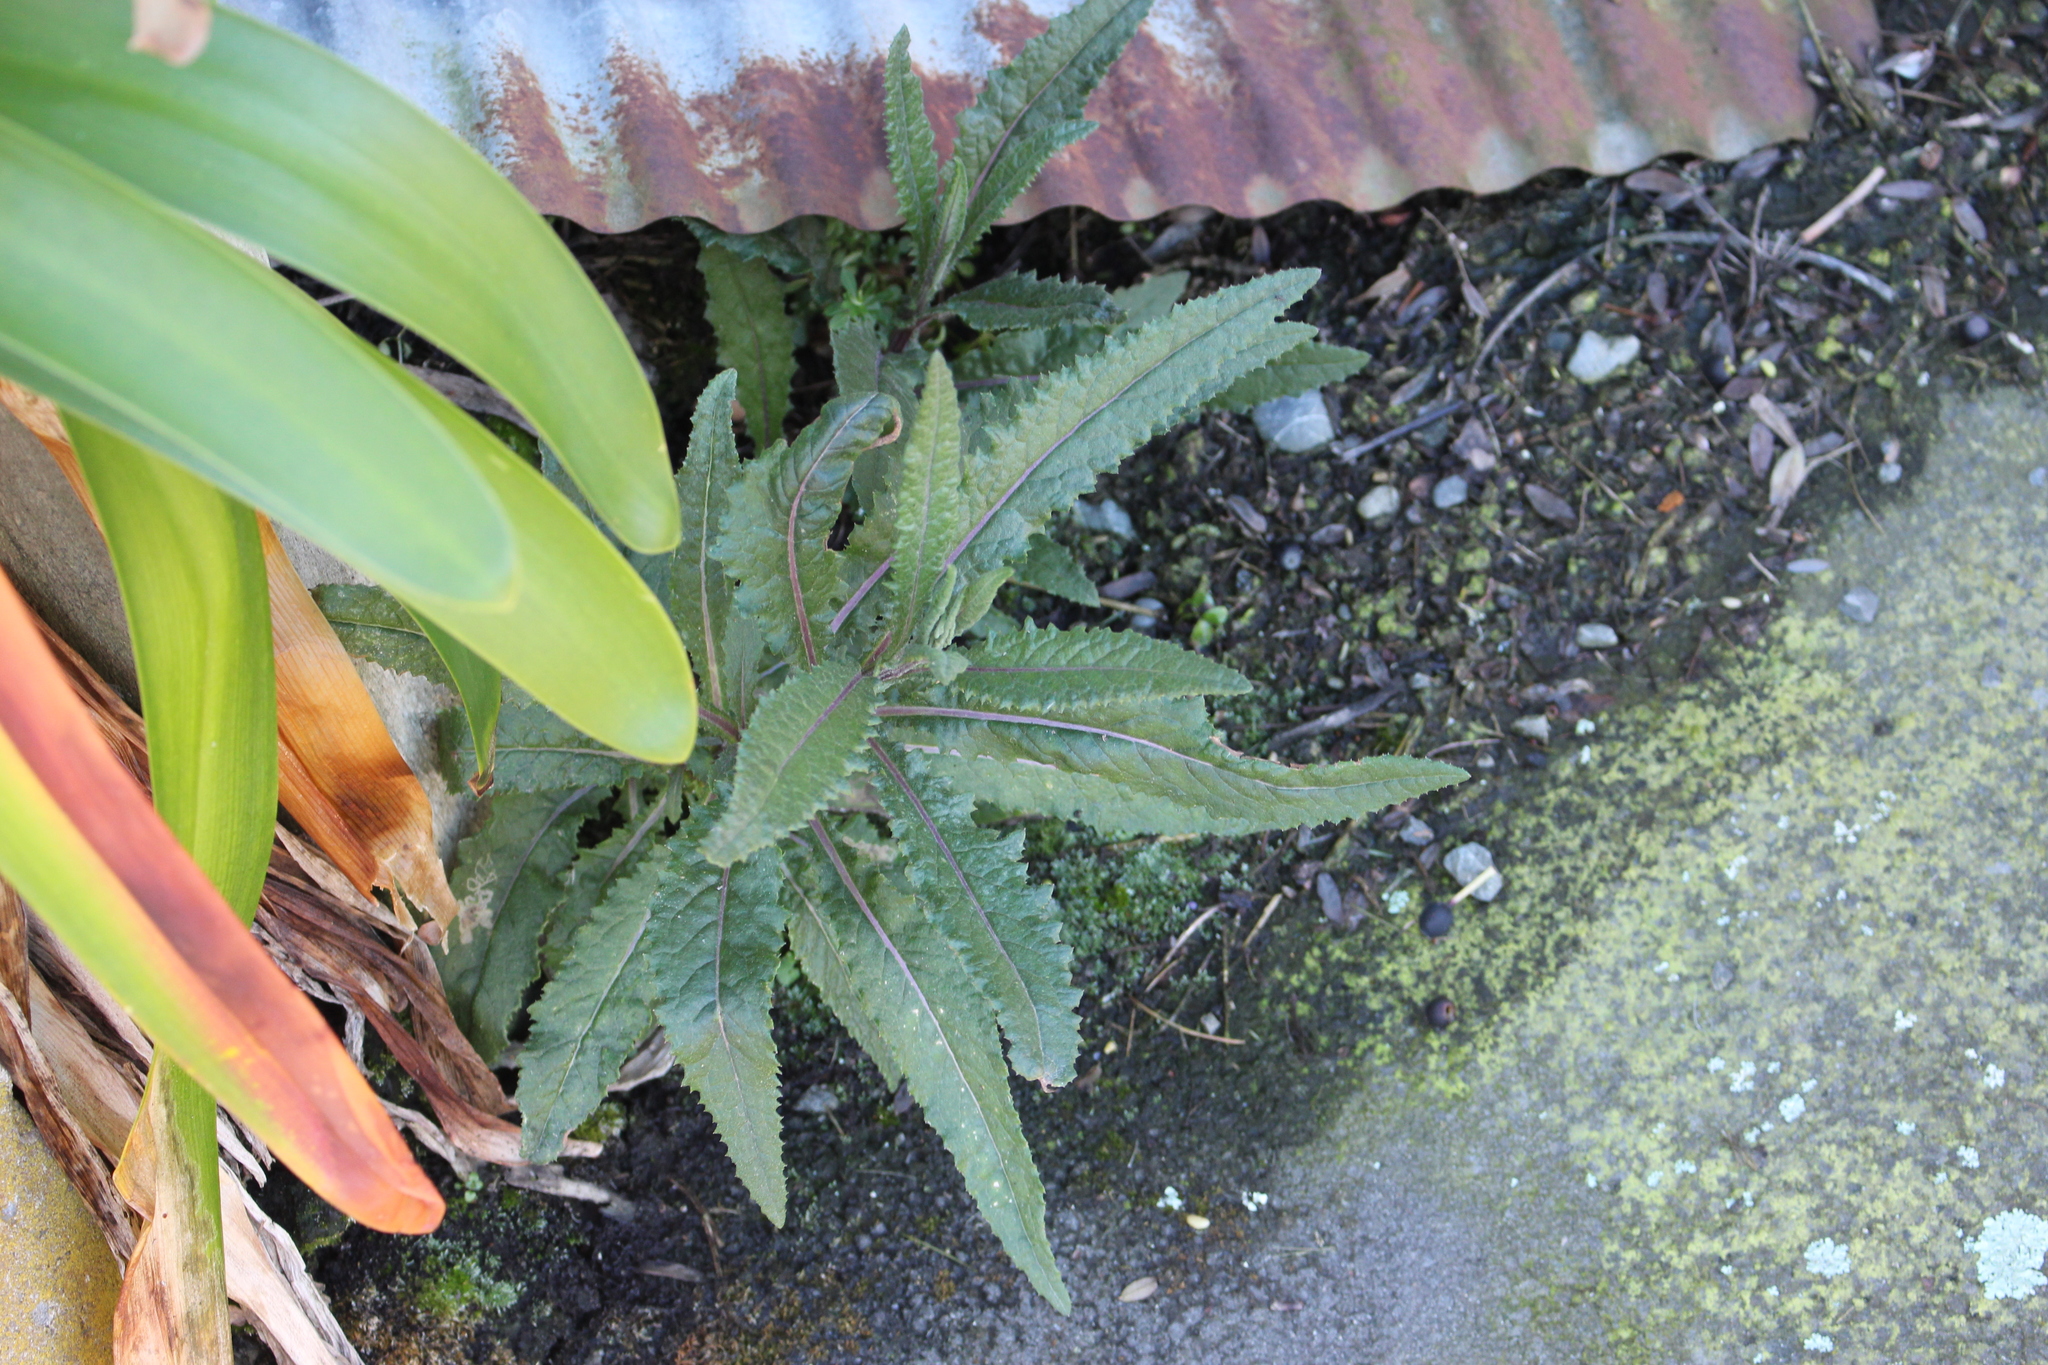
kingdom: Plantae
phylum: Tracheophyta
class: Magnoliopsida
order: Asterales
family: Asteraceae
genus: Senecio
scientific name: Senecio minimus
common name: Toothed fireweed
